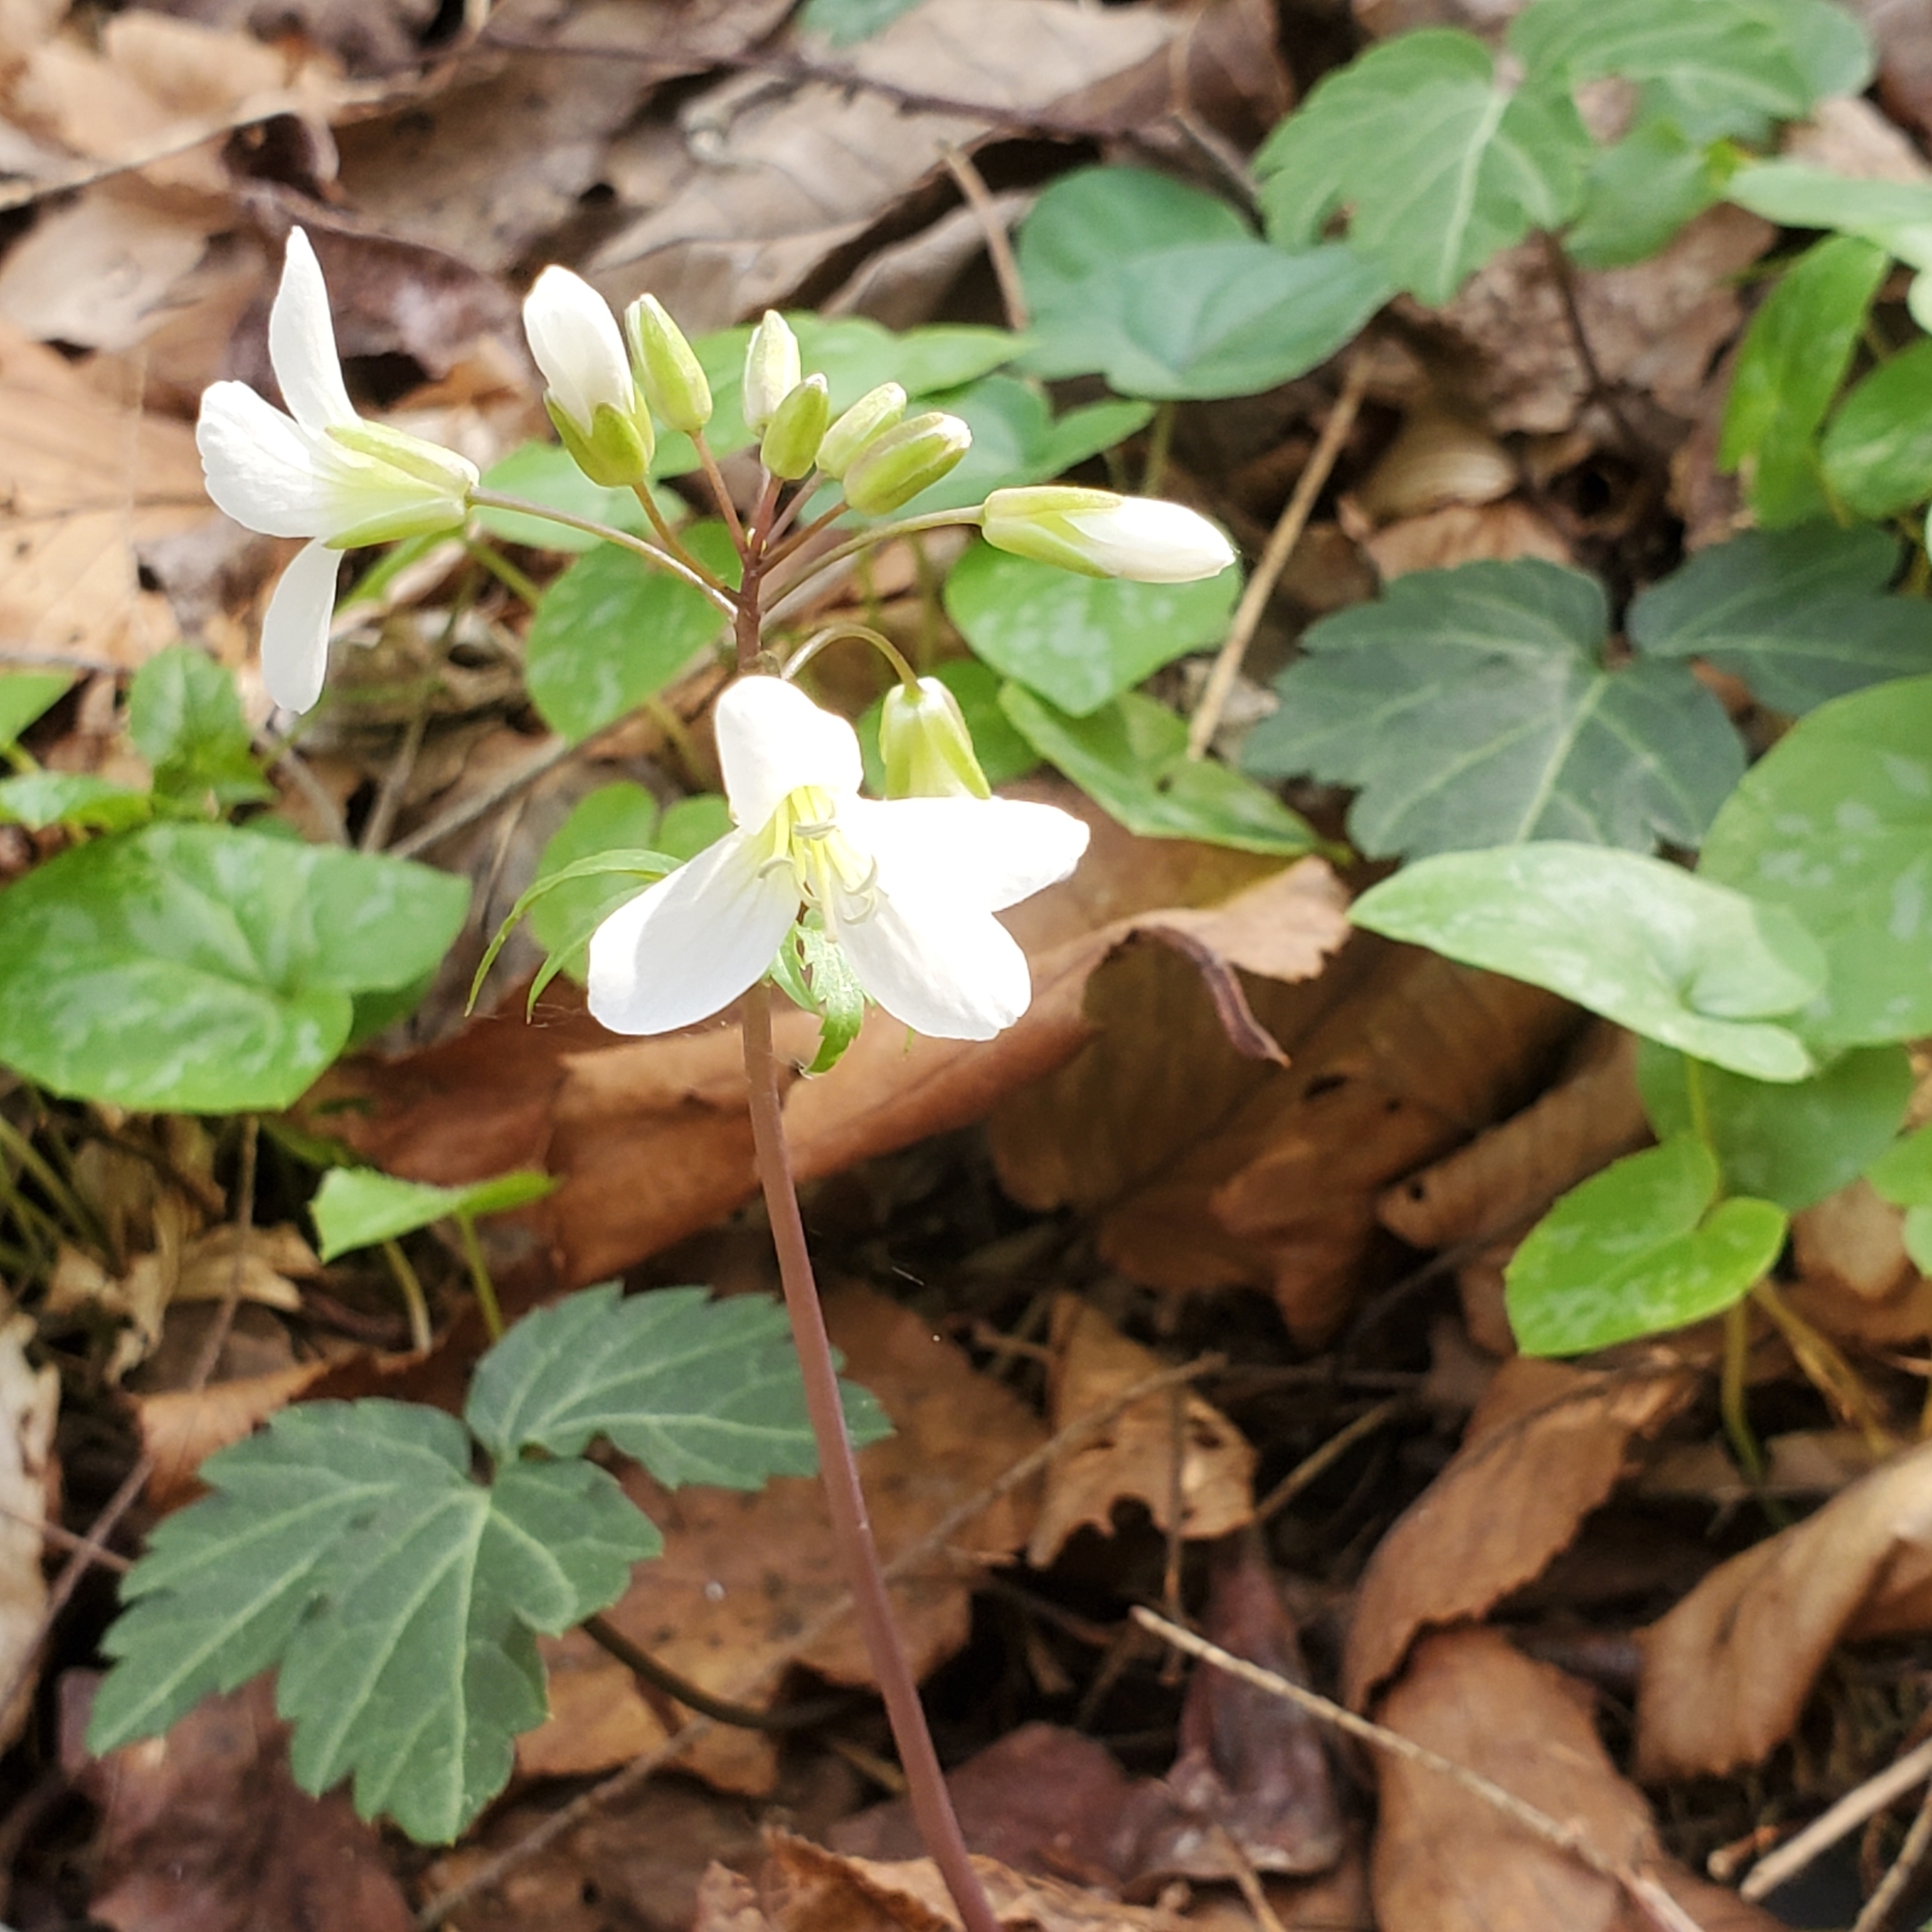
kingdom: Plantae
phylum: Tracheophyta
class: Magnoliopsida
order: Brassicales
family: Brassicaceae
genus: Cardamine
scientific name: Cardamine diphylla
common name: Broad-leaved toothwort
